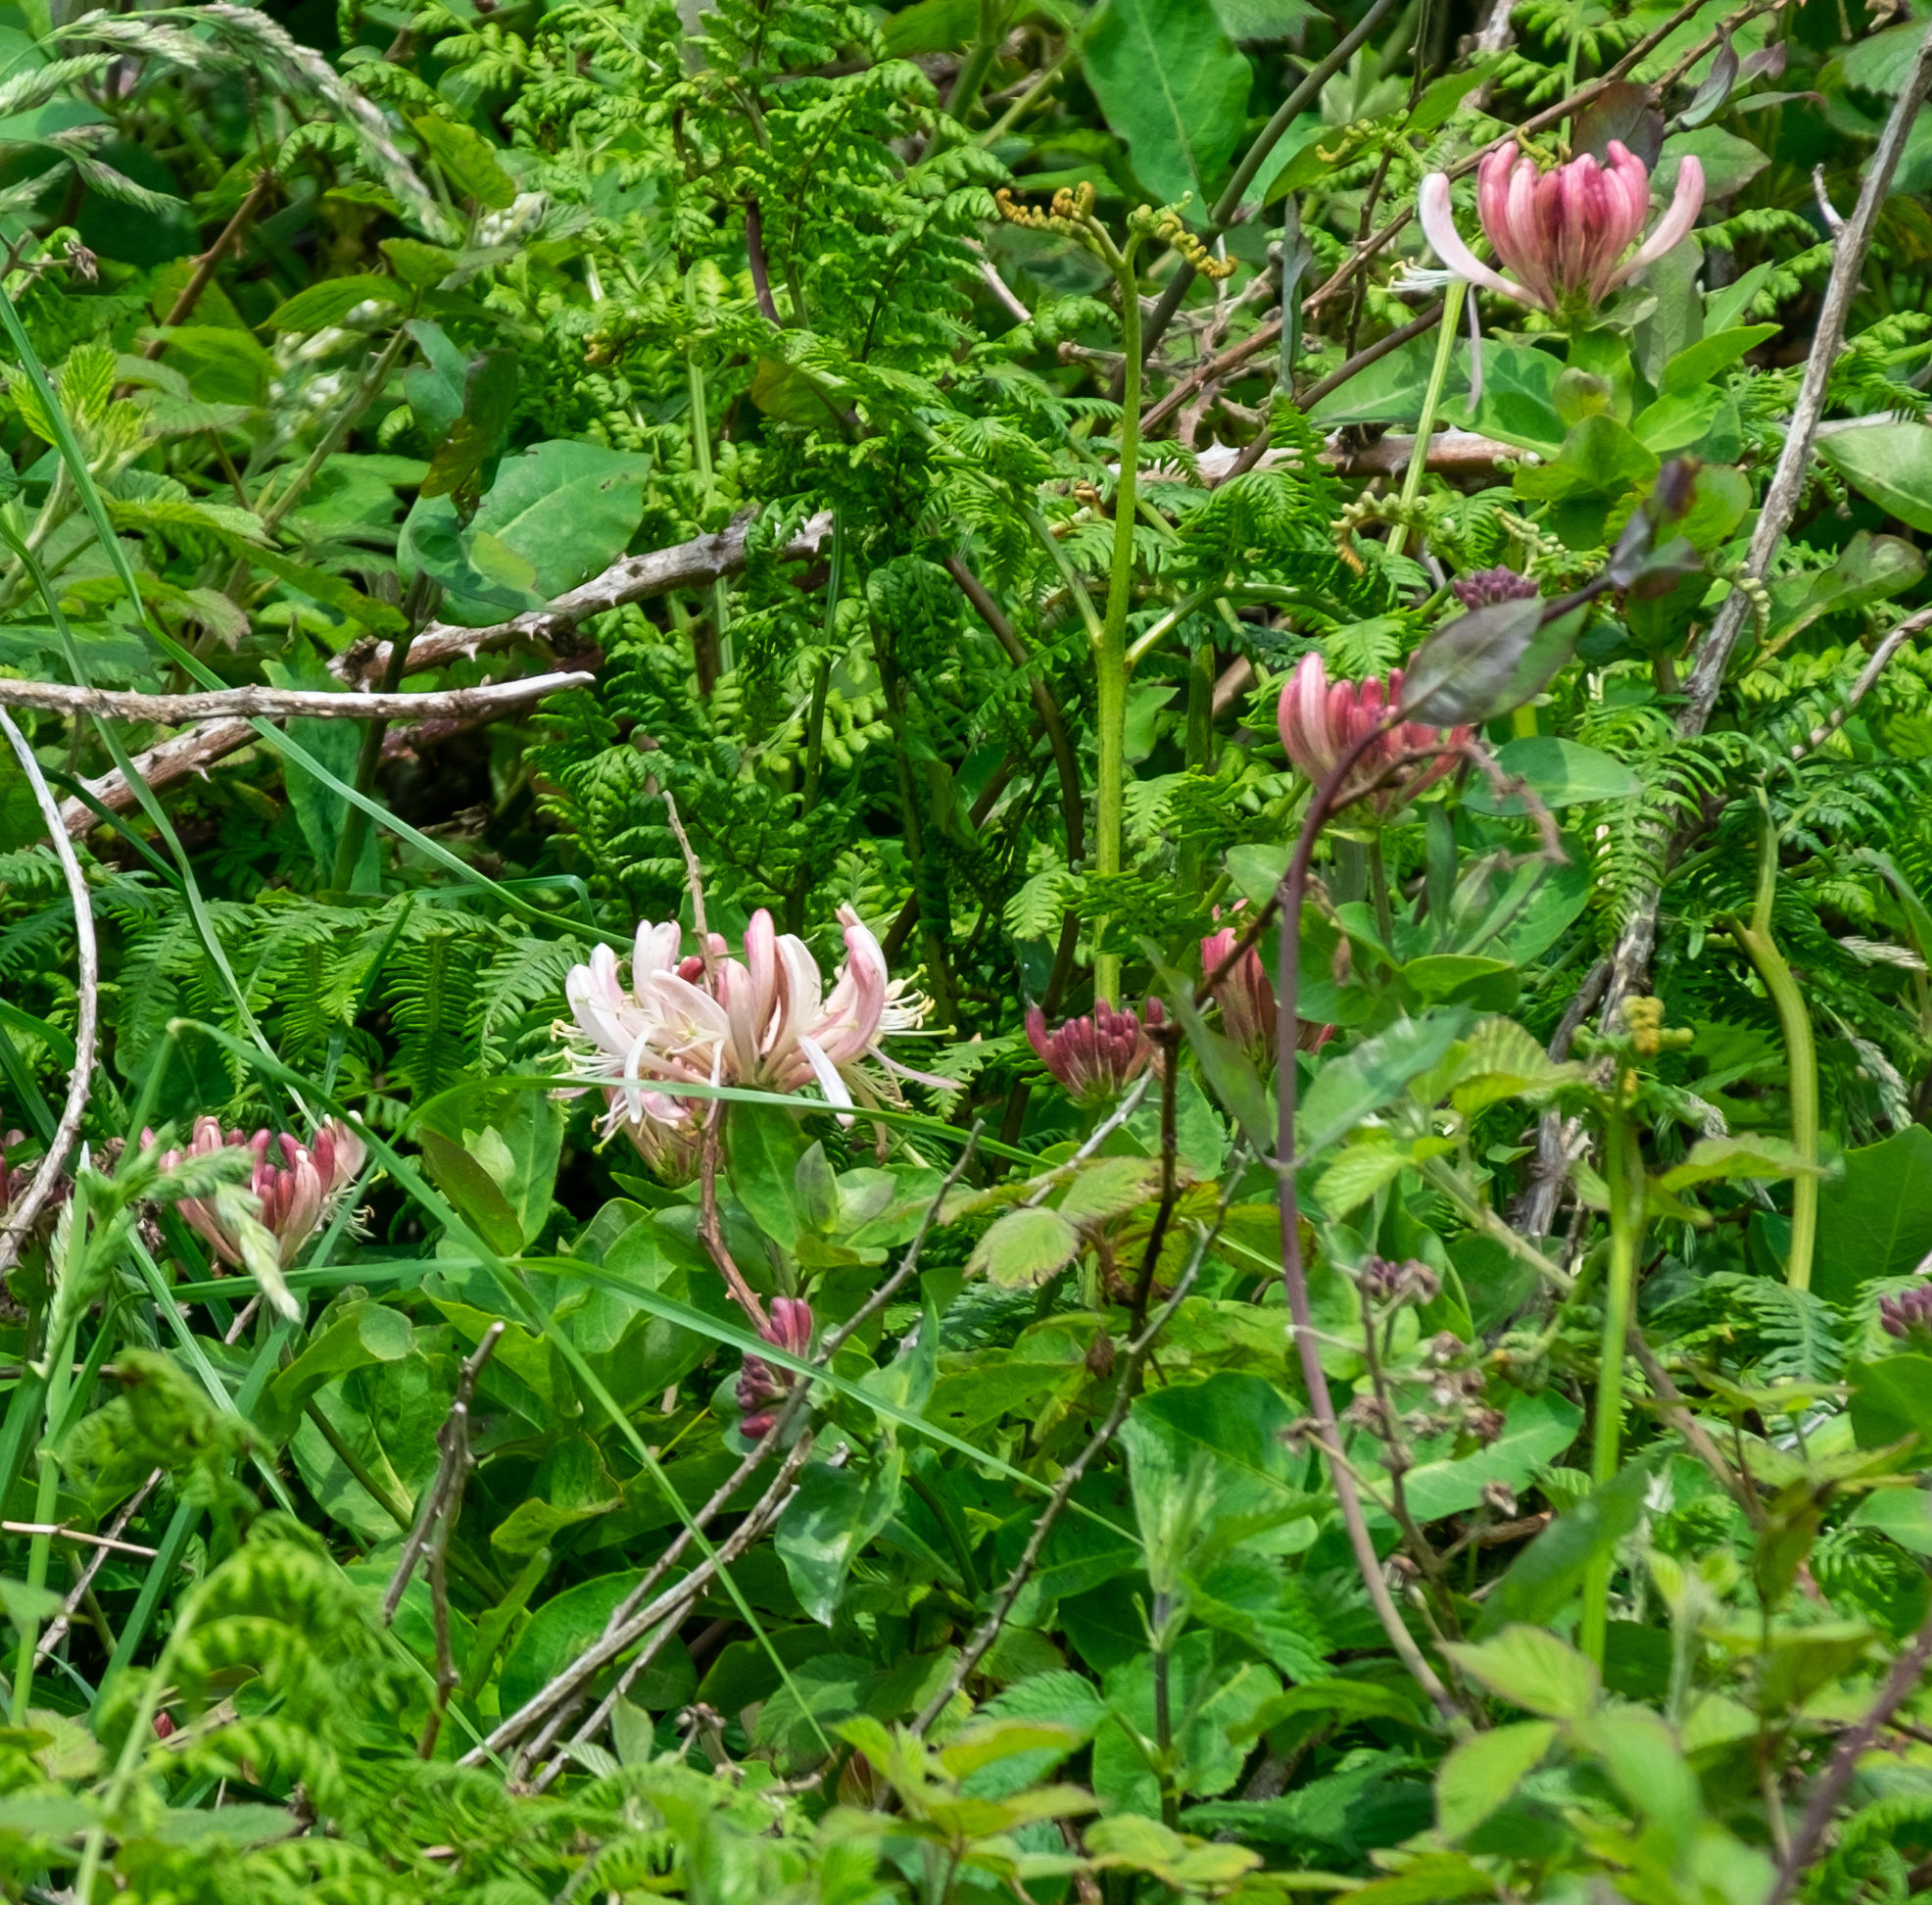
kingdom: Plantae
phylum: Tracheophyta
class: Magnoliopsida
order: Dipsacales
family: Caprifoliaceae
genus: Lonicera
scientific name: Lonicera periclymenum
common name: European honeysuckle
